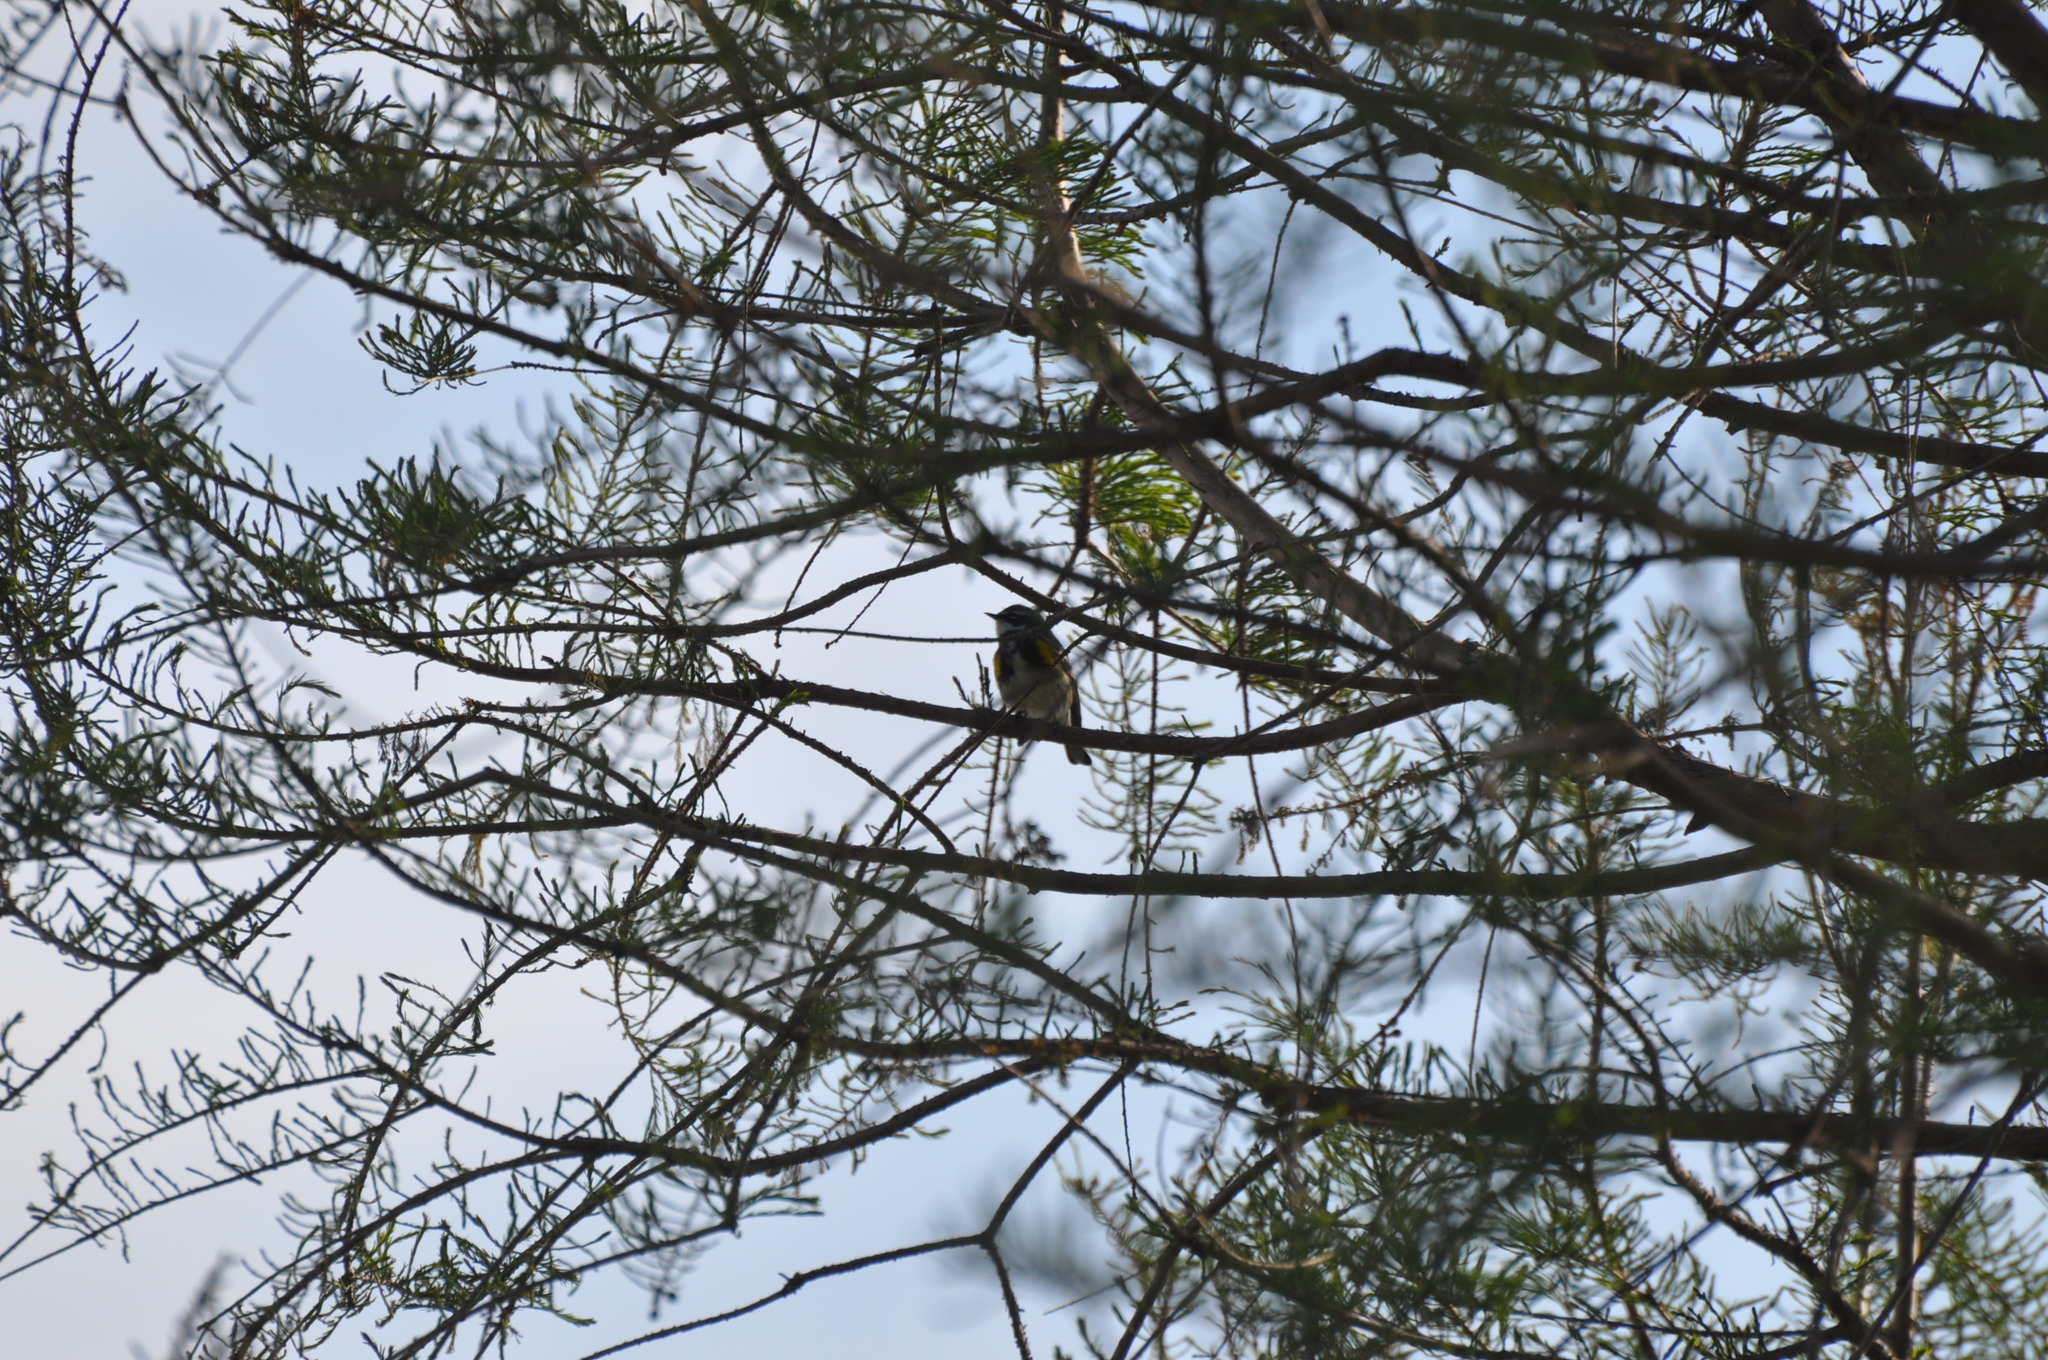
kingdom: Animalia
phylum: Chordata
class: Aves
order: Passeriformes
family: Parulidae
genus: Setophaga
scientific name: Setophaga coronata
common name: Myrtle warbler
